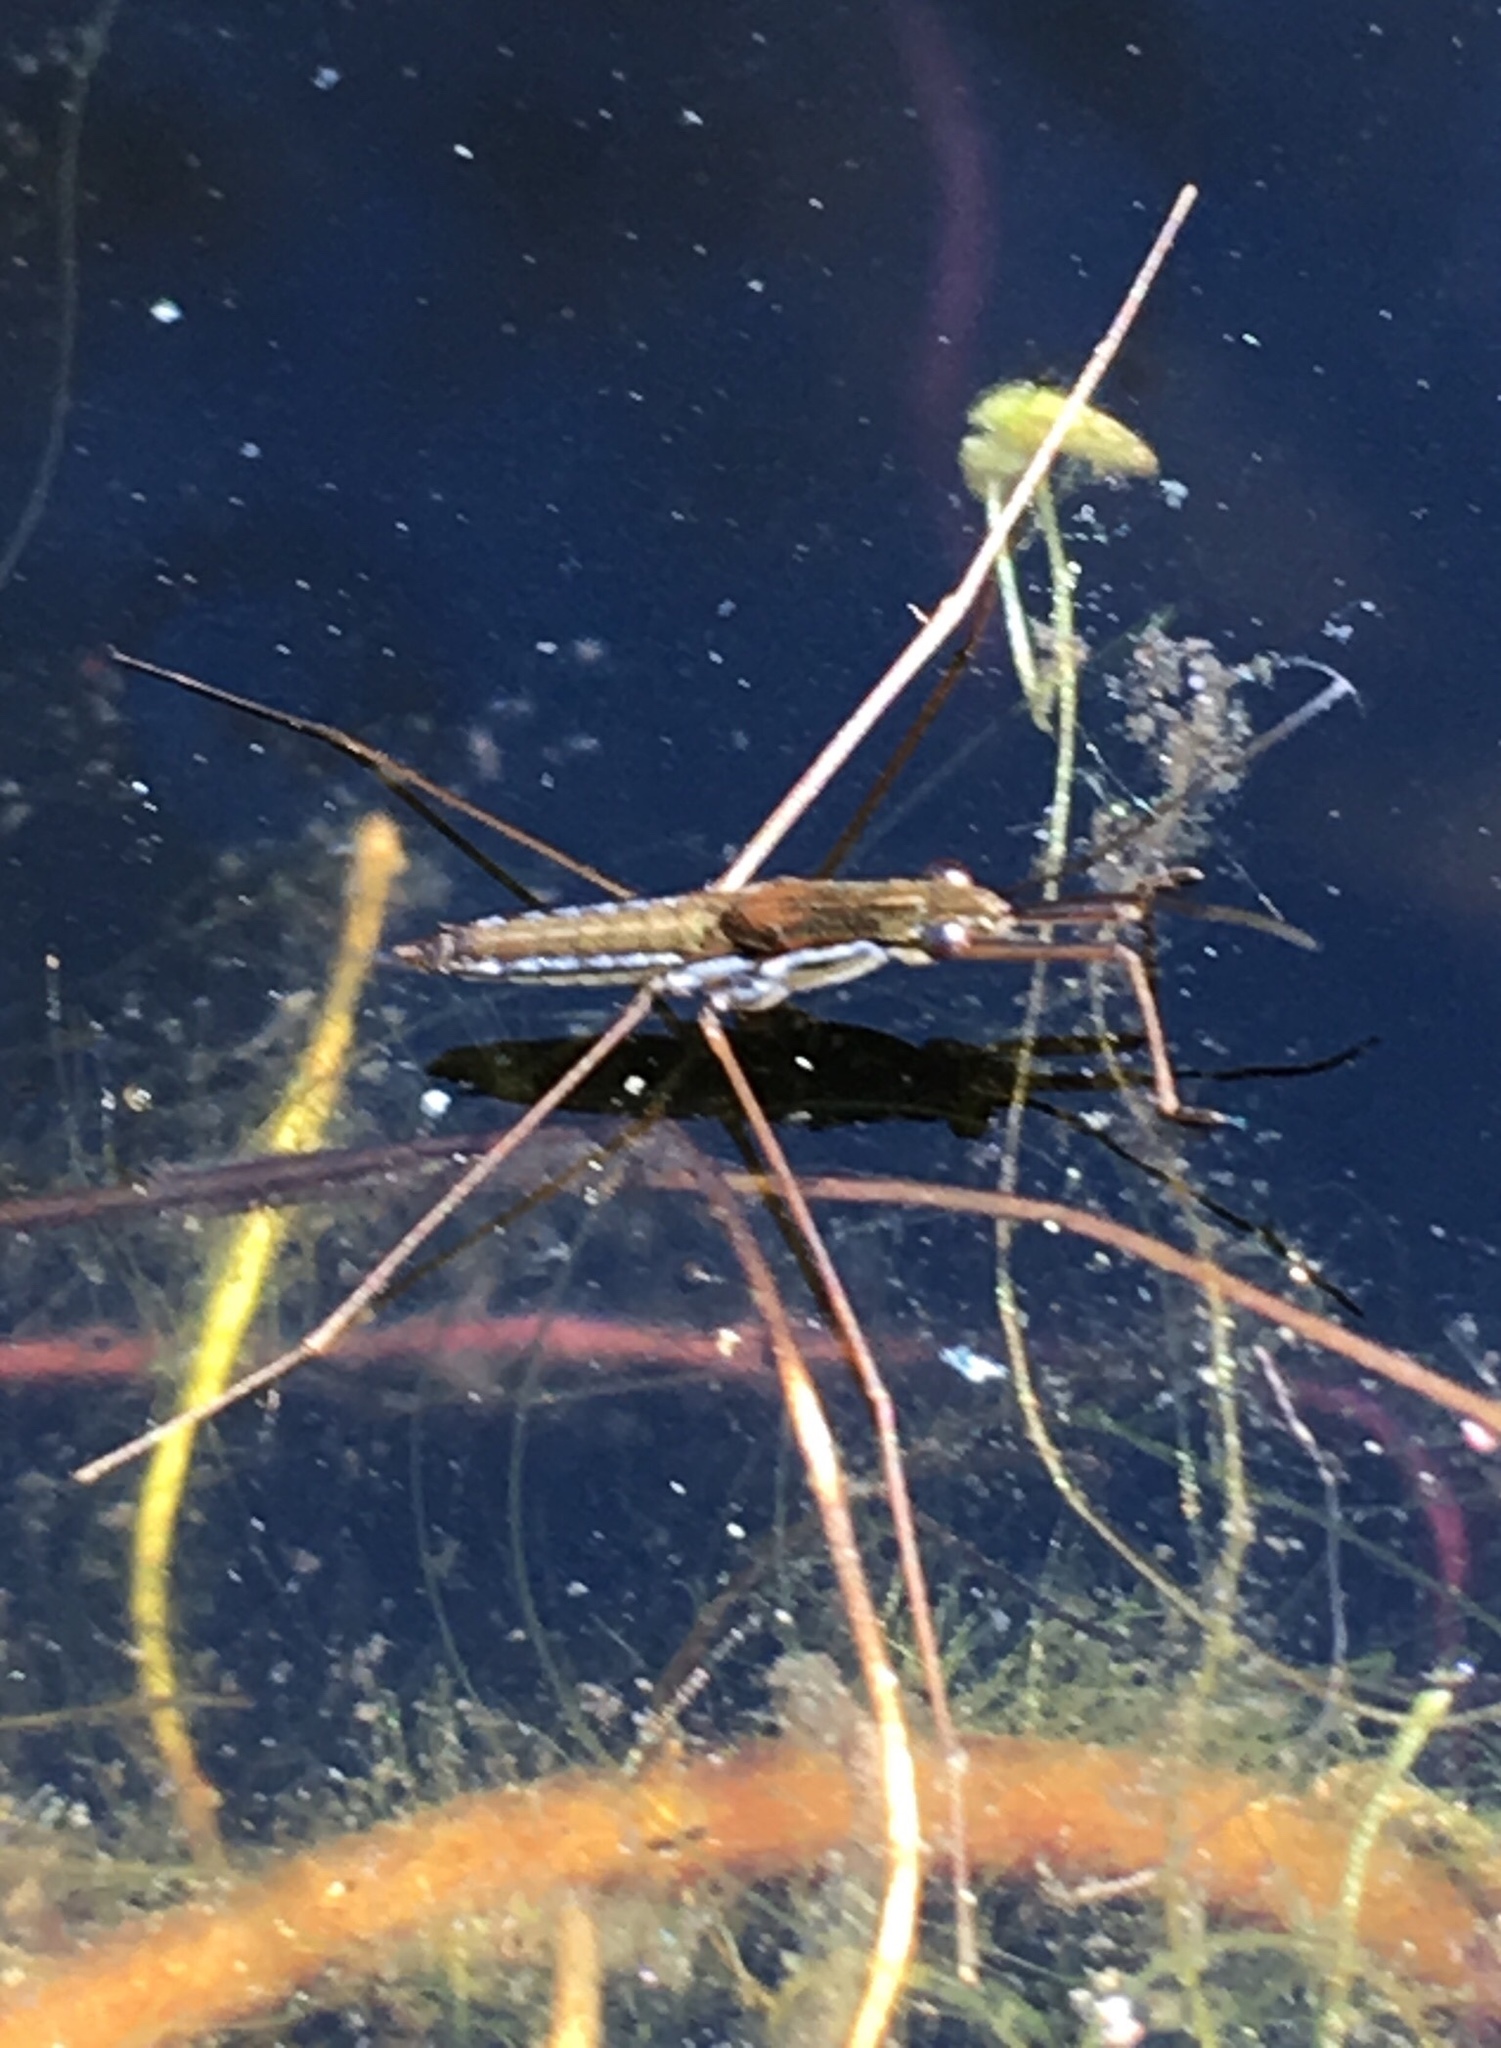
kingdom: Animalia
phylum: Arthropoda
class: Insecta
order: Hemiptera
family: Gerridae
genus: Limnoporus
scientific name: Limnoporus canaliculatus
